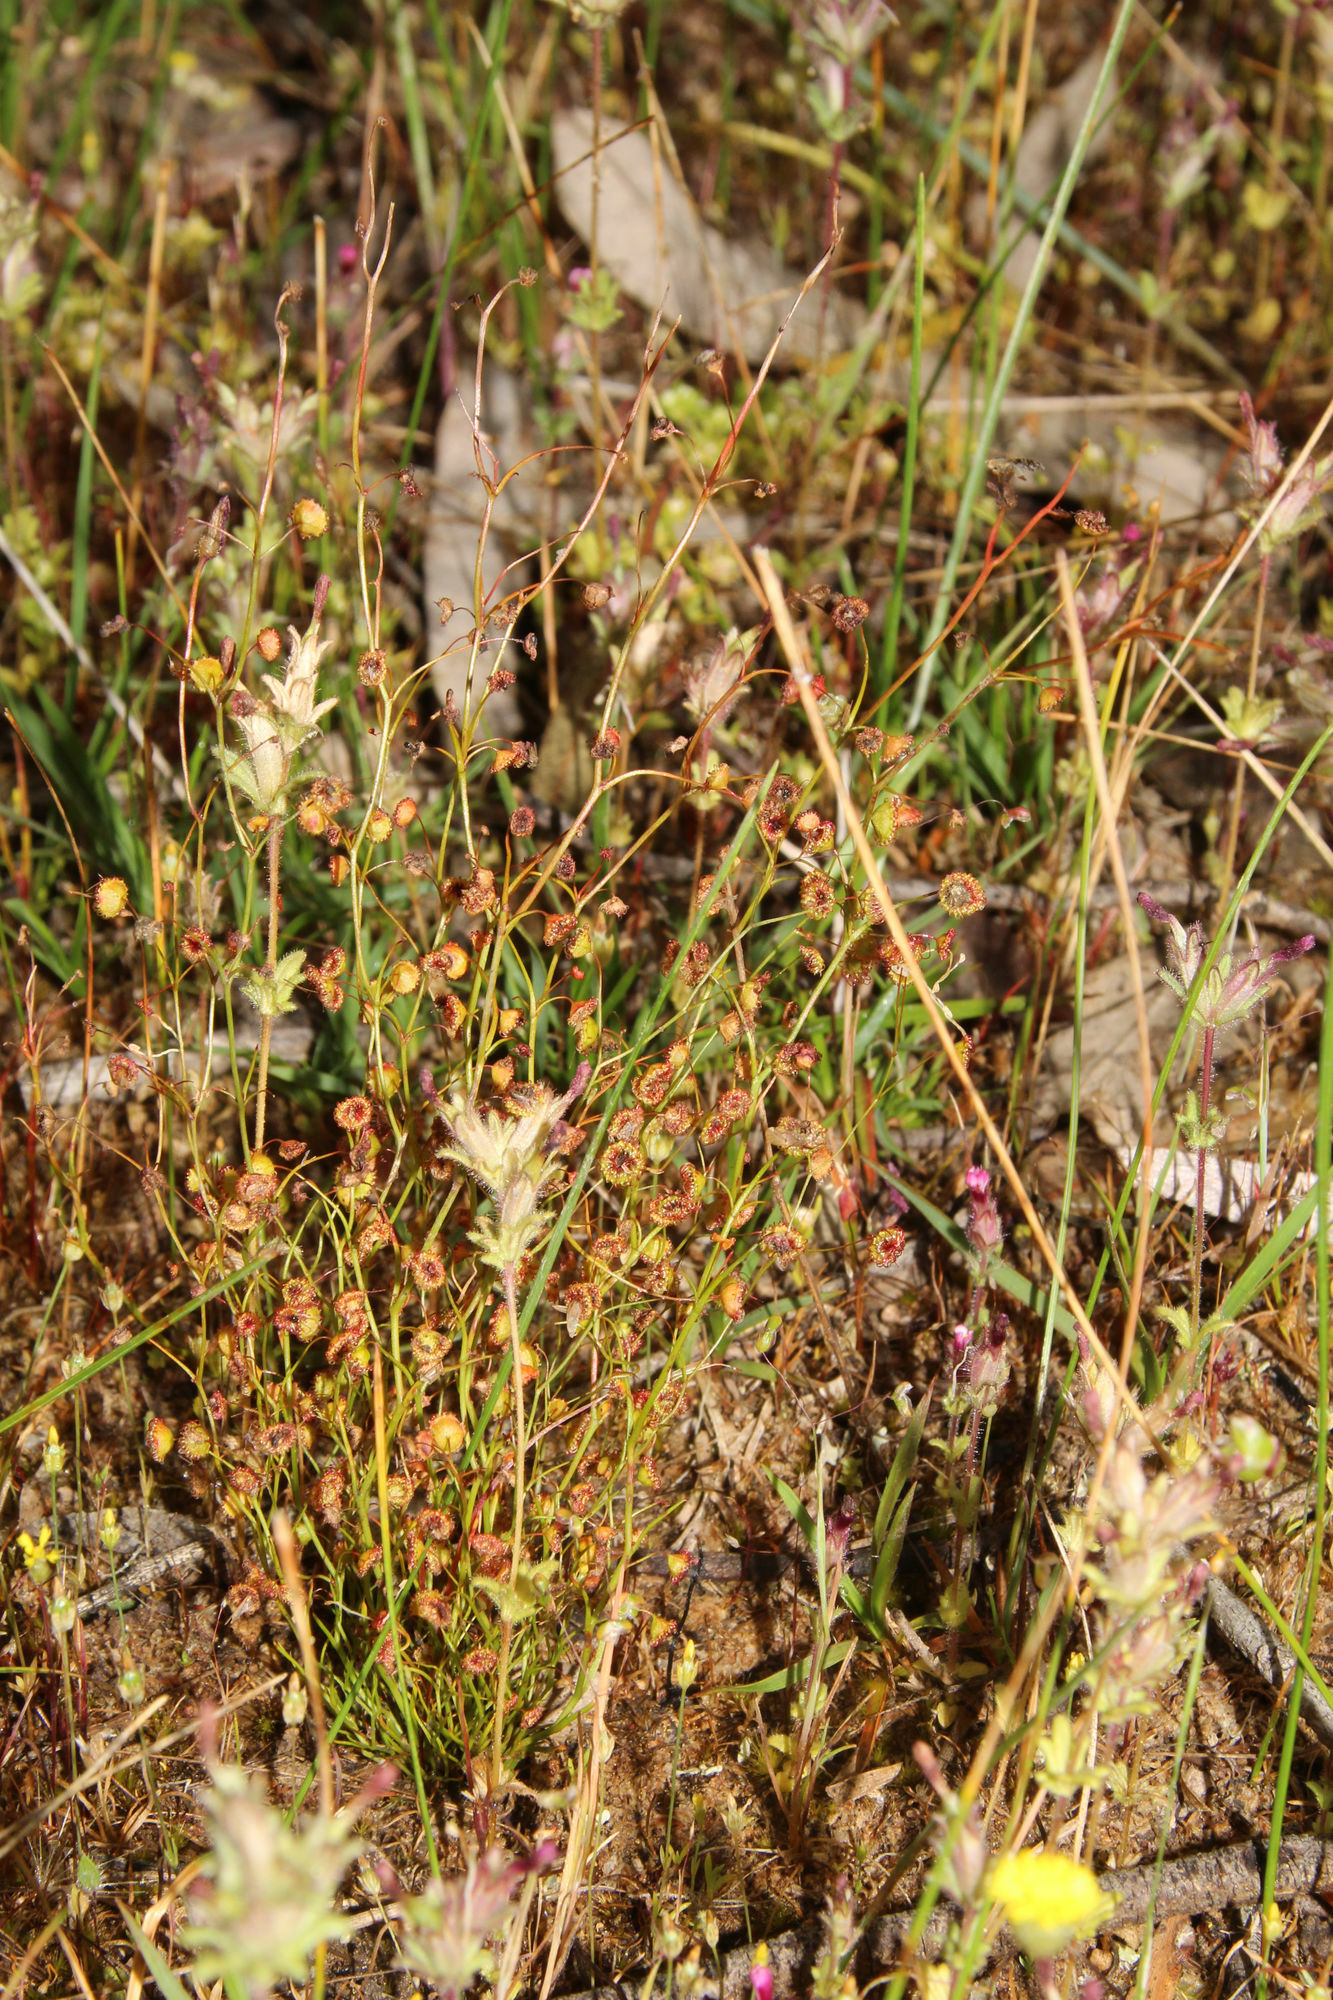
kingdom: Plantae
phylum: Tracheophyta
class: Magnoliopsida
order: Caryophyllales
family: Droseraceae
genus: Drosera
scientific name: Drosera menziesii
